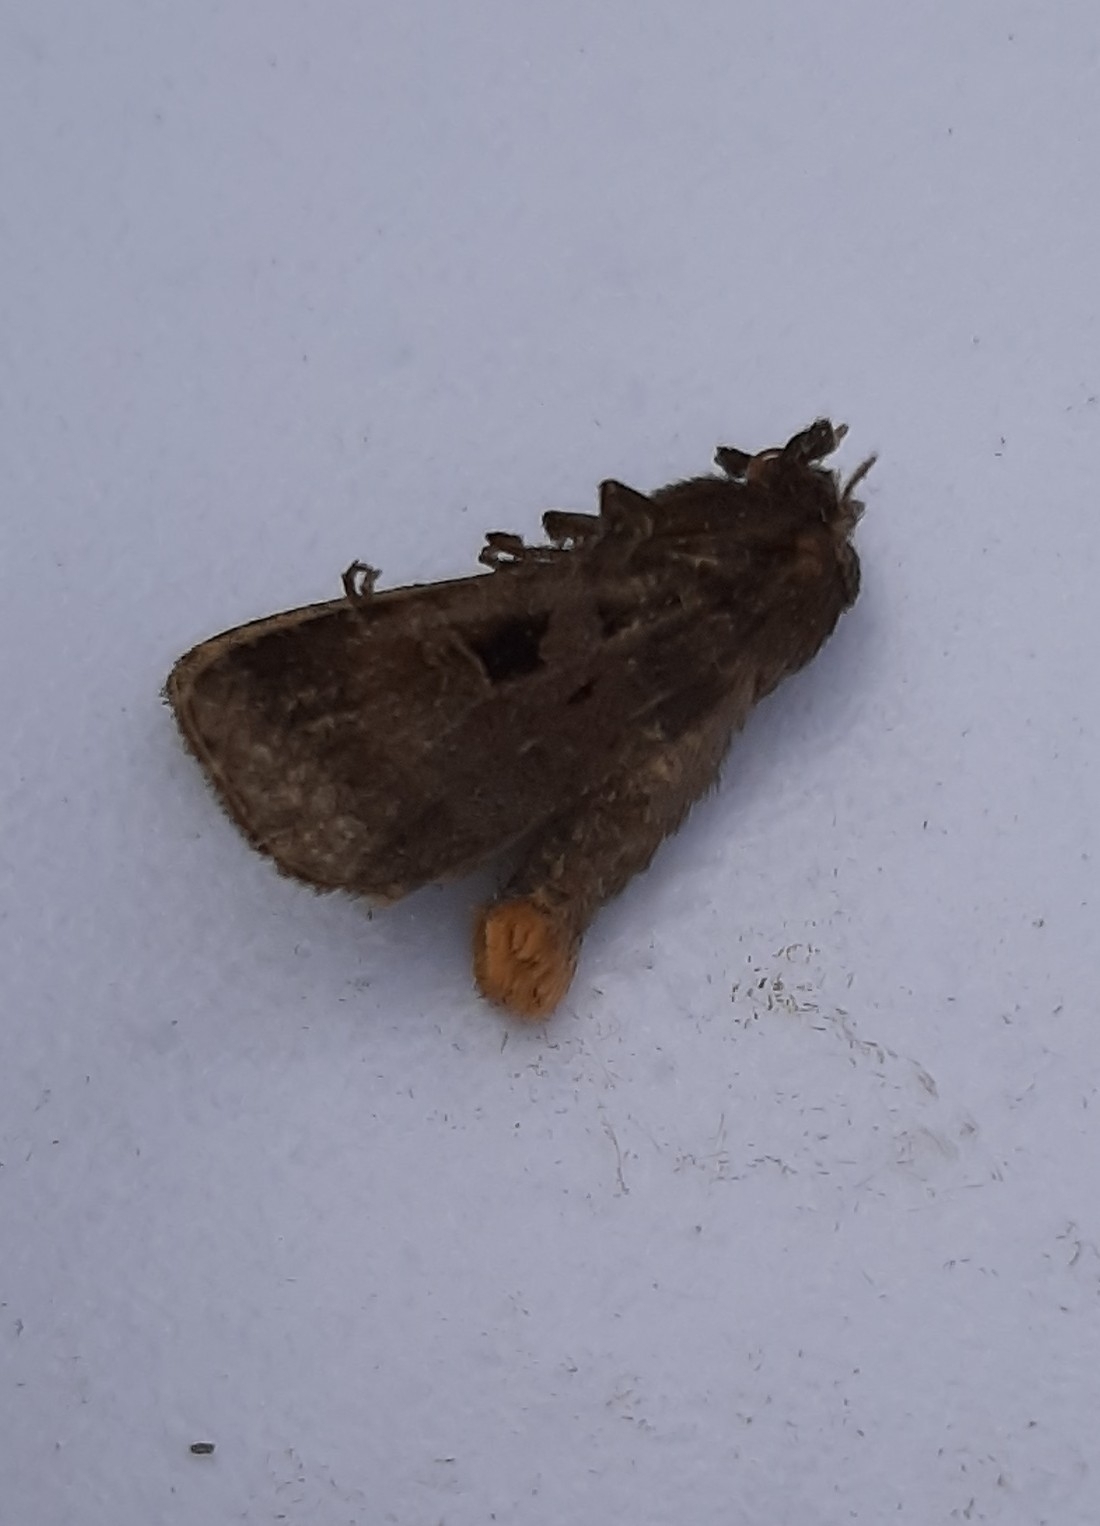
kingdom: Animalia
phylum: Arthropoda
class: Insecta
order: Lepidoptera
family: Noctuidae
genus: Diarsia
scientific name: Diarsia brunnea
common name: Purple clay
